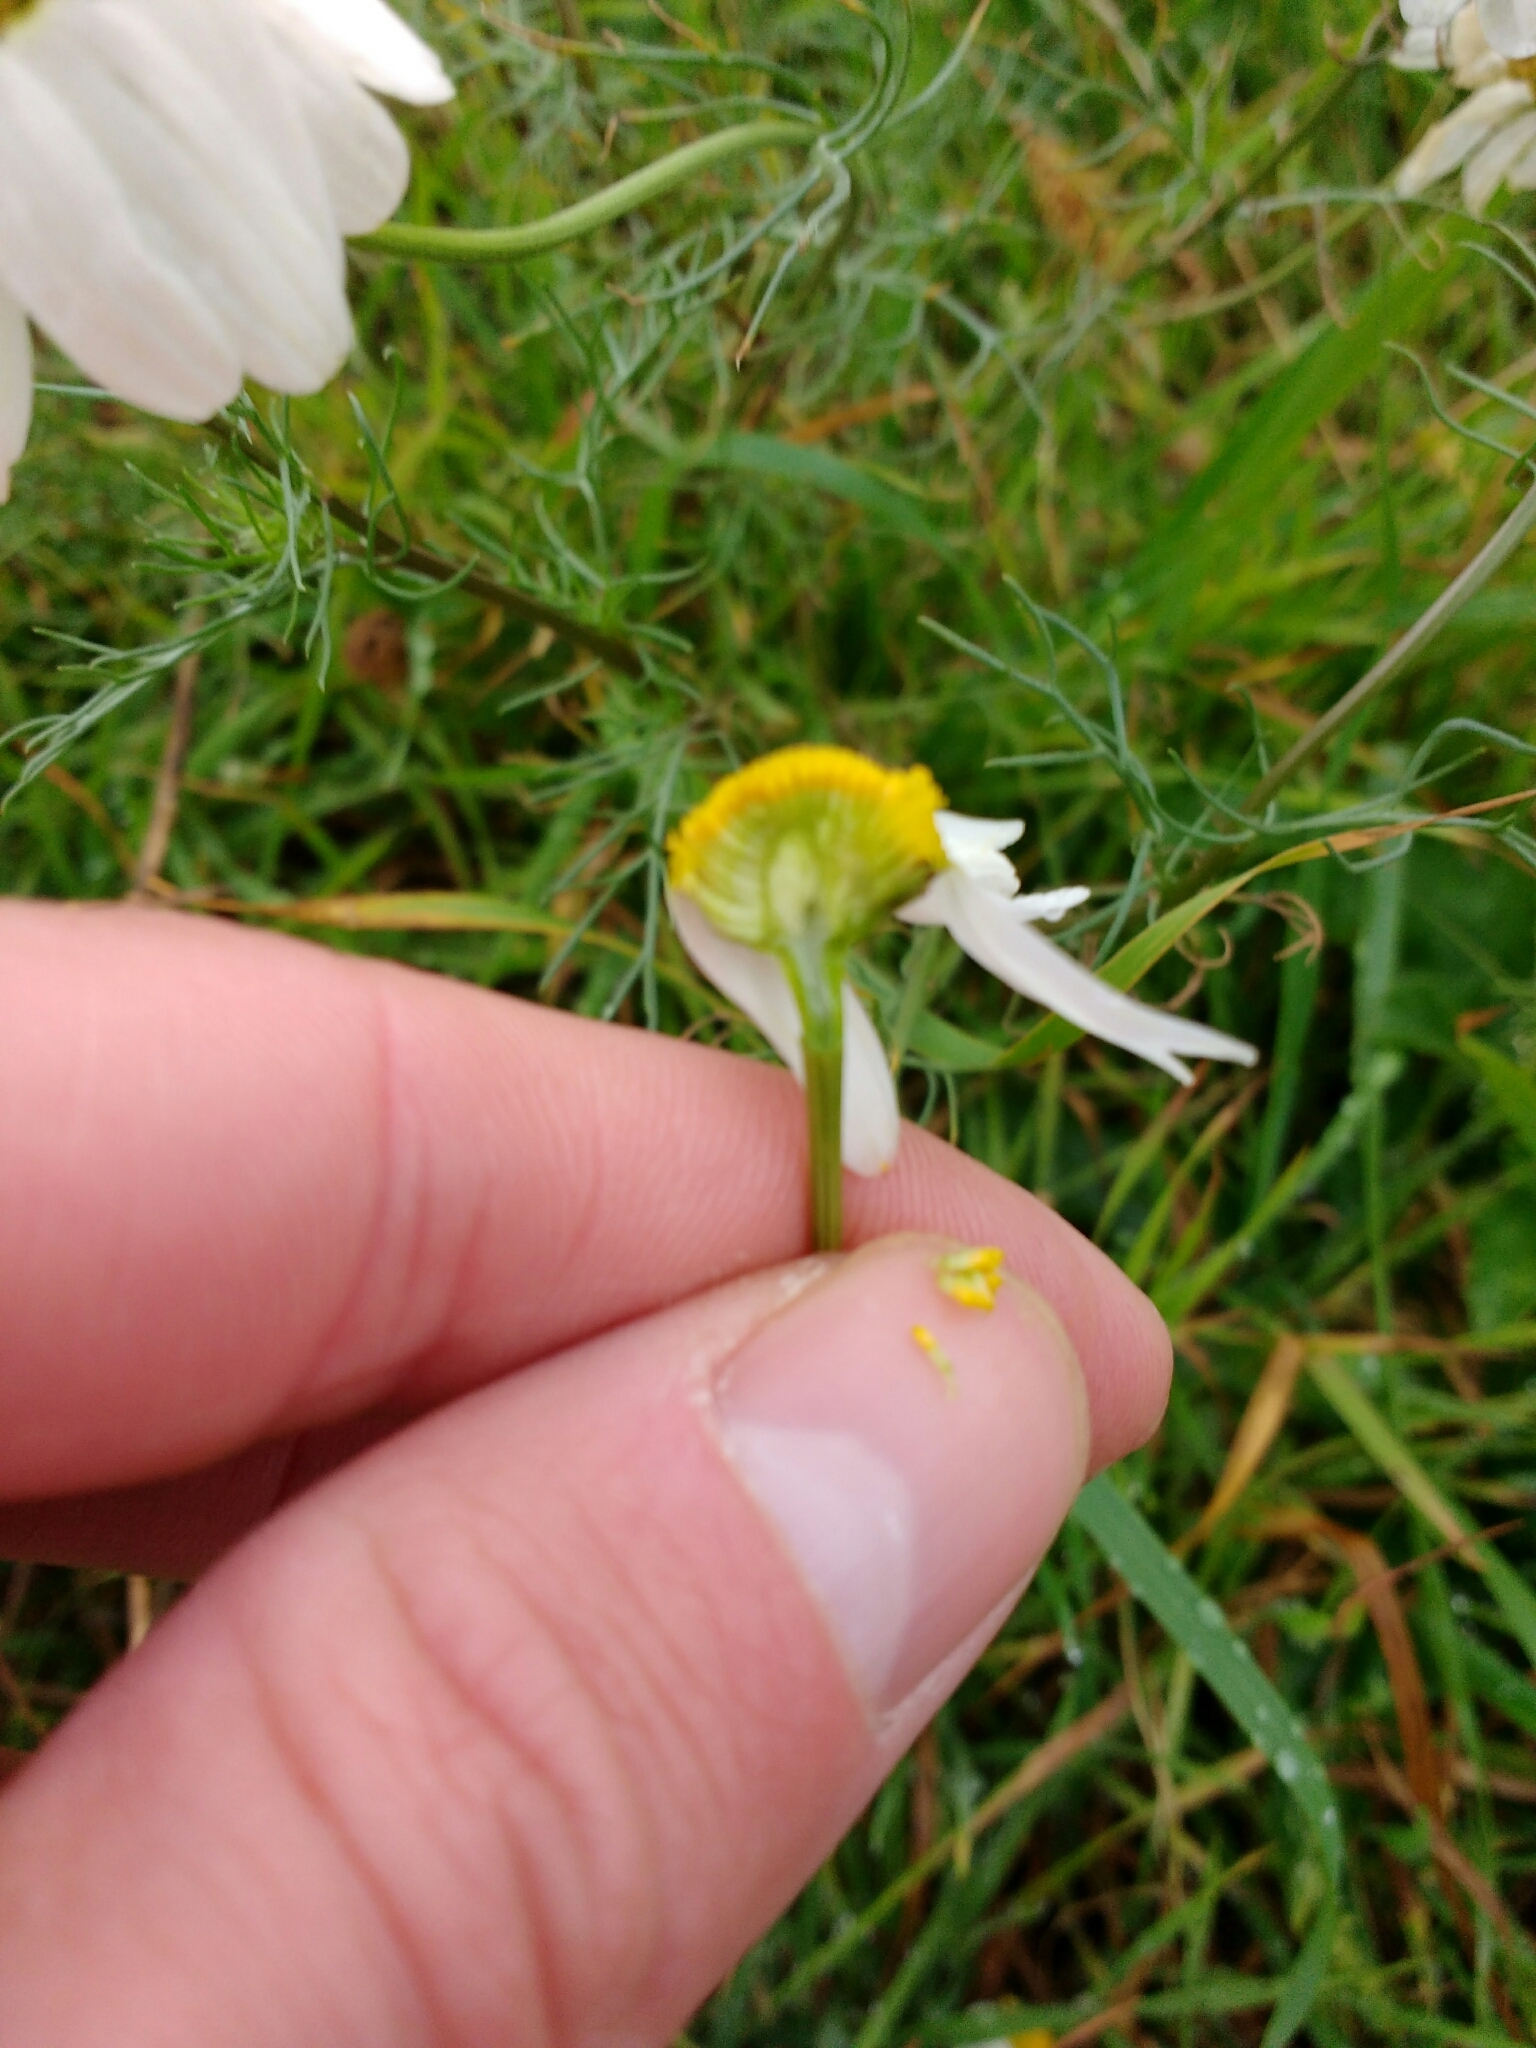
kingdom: Plantae
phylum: Tracheophyta
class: Magnoliopsida
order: Asterales
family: Asteraceae
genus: Tripleurospermum
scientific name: Tripleurospermum inodorum
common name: Scentless mayweed
